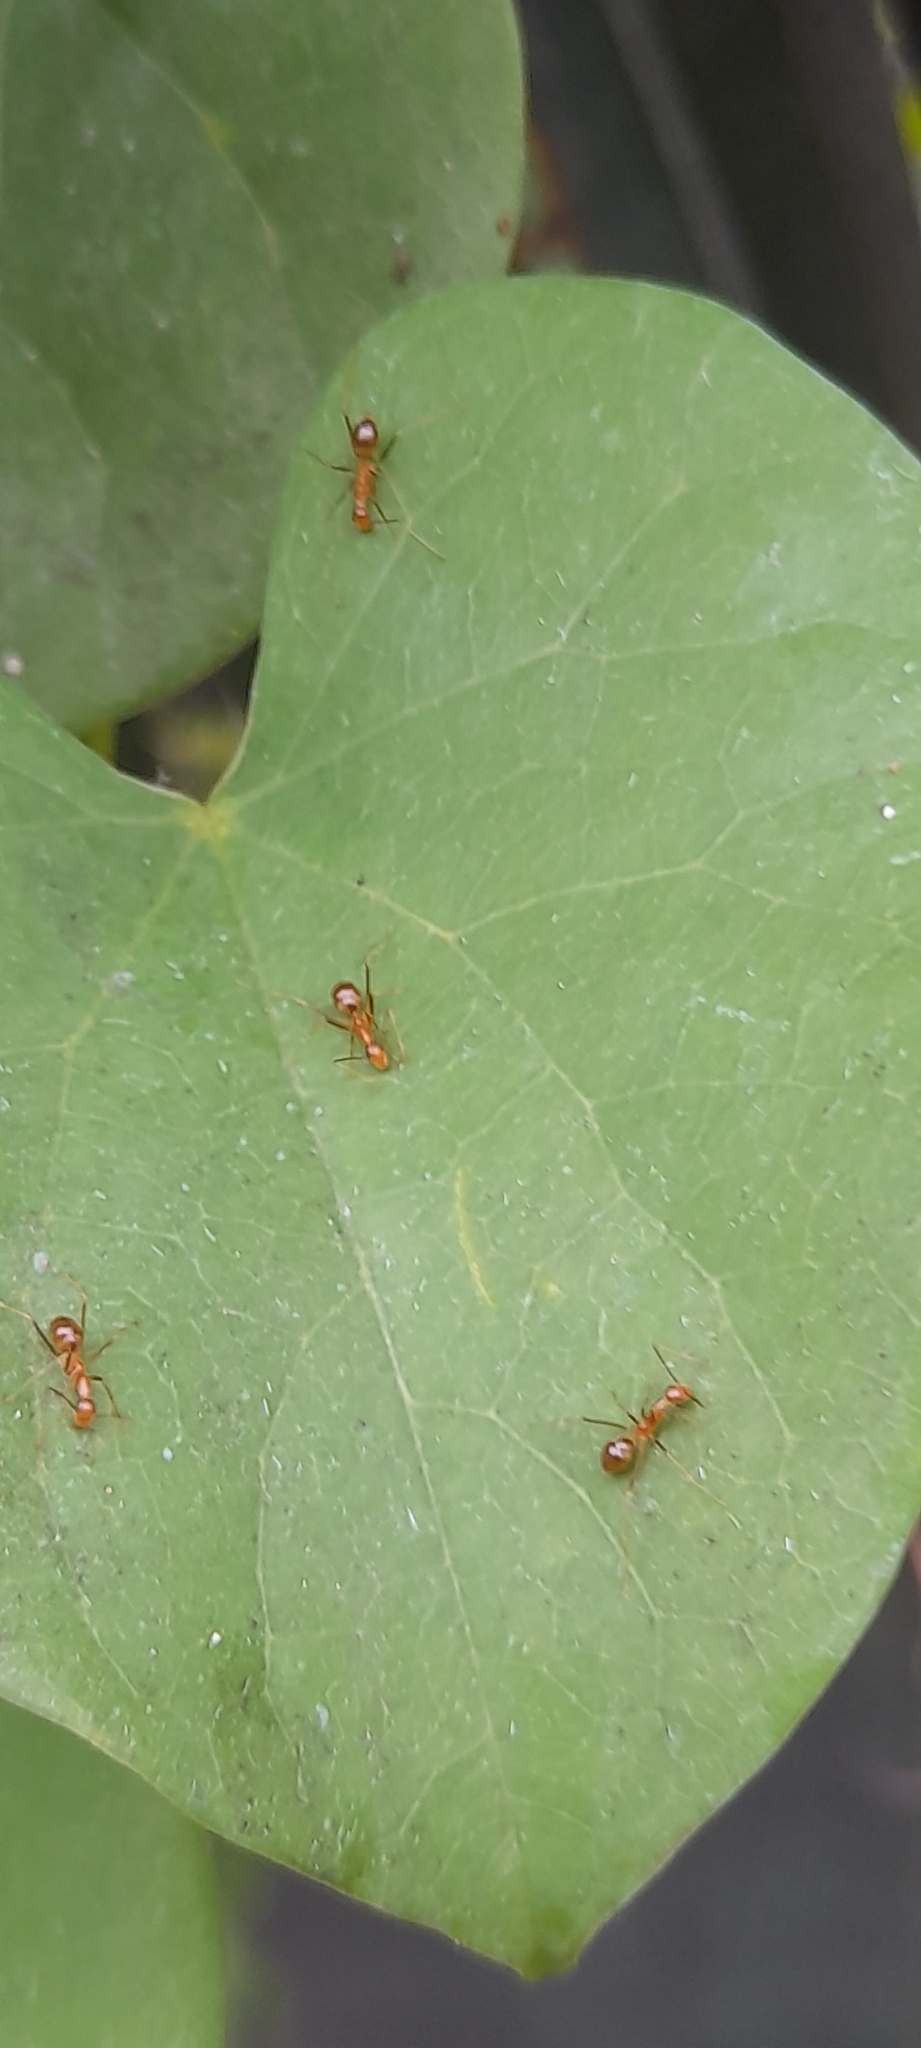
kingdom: Animalia
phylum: Arthropoda
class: Insecta
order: Hymenoptera
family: Formicidae
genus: Anoplolepis
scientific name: Anoplolepis gracilipes
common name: Ant
